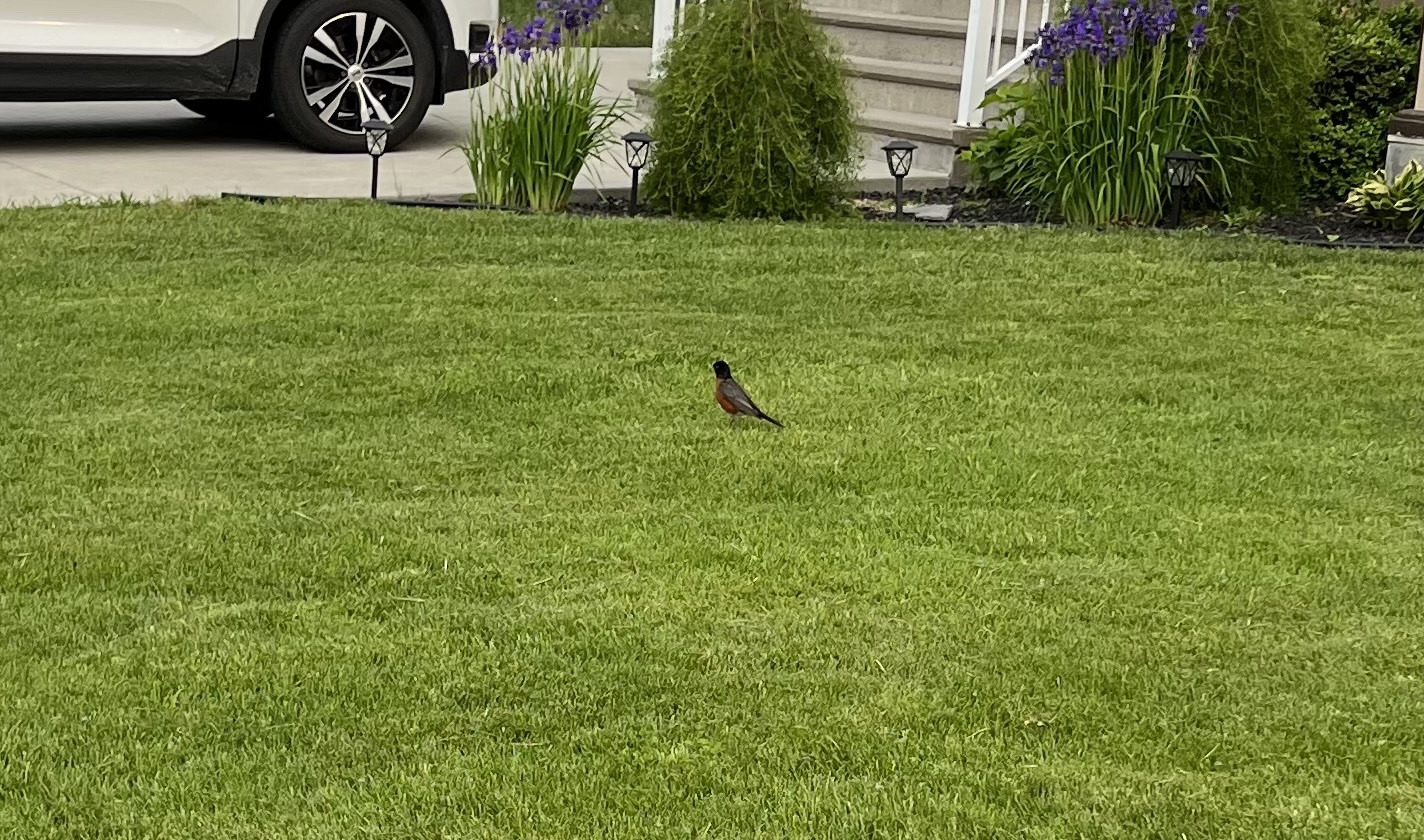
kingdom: Animalia
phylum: Chordata
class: Aves
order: Passeriformes
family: Turdidae
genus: Turdus
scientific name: Turdus migratorius
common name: American robin
